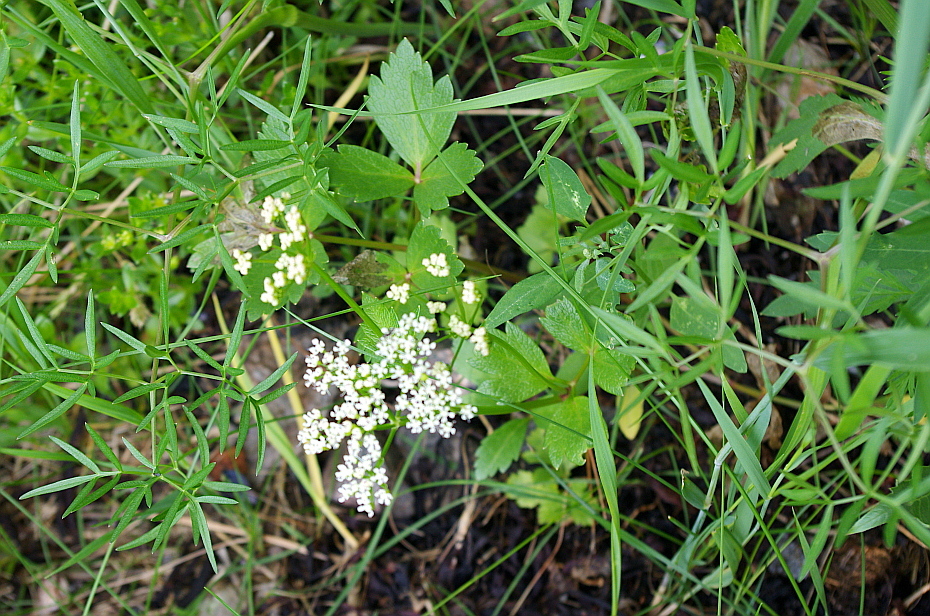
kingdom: Plantae
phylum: Tracheophyta
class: Magnoliopsida
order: Apiales
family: Apiaceae
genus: Ligusticum
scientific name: Ligusticum scothicum
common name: Beach lovage
